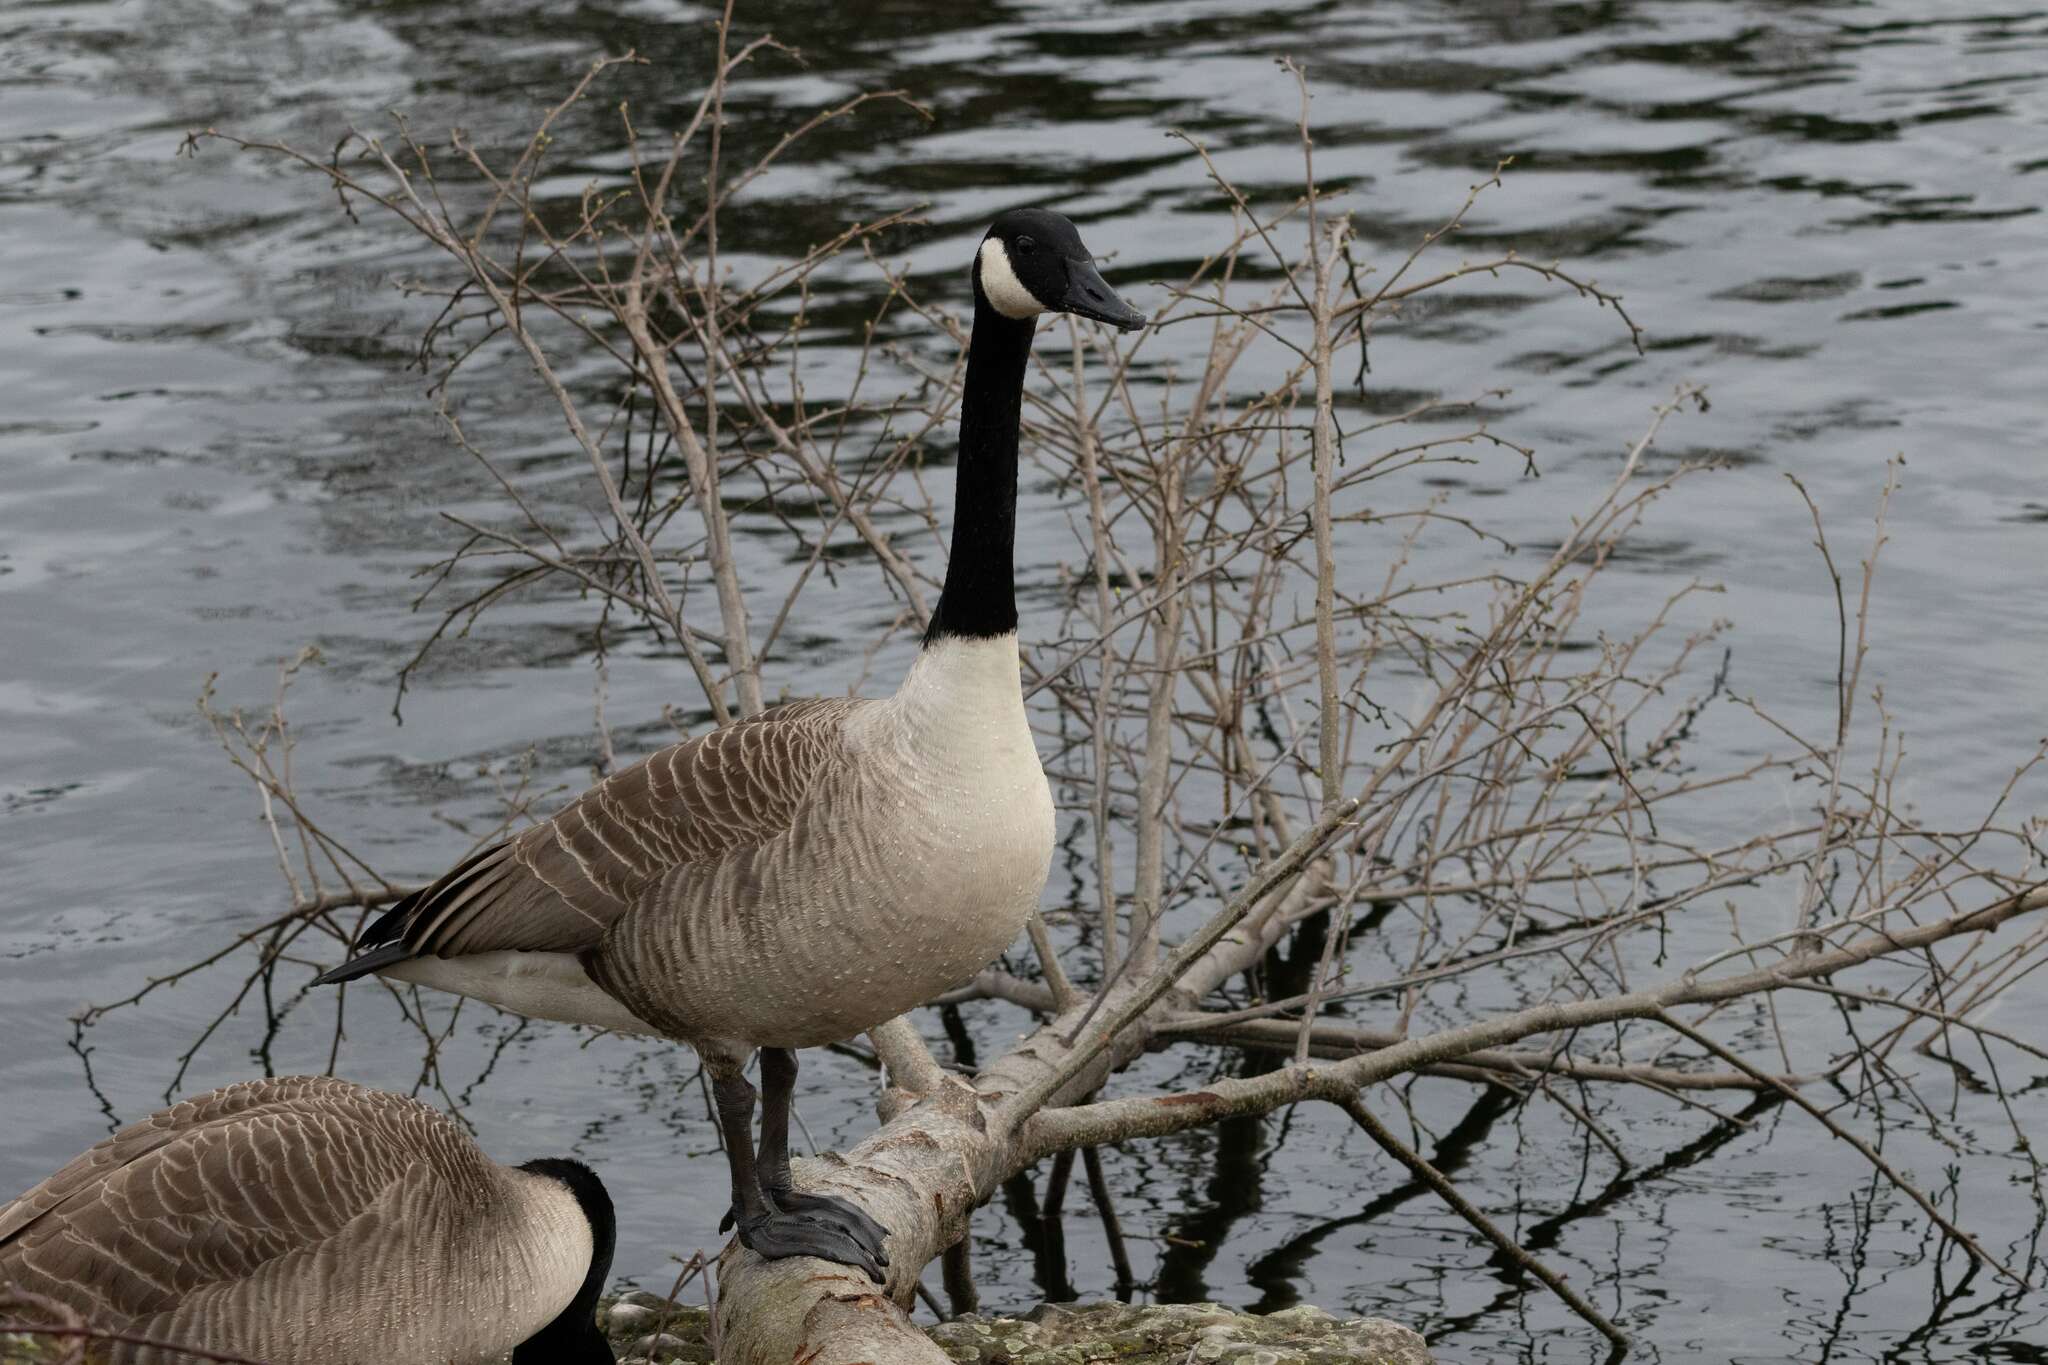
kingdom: Animalia
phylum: Chordata
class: Aves
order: Anseriformes
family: Anatidae
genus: Branta
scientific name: Branta canadensis
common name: Canada goose
